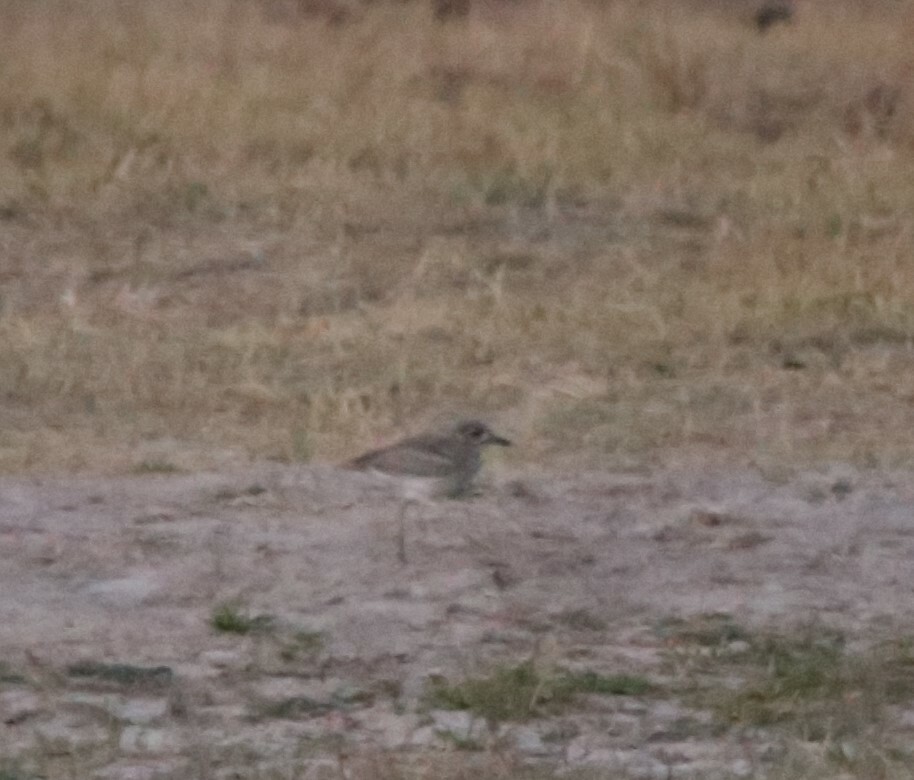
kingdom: Animalia
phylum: Chordata
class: Aves
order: Charadriiformes
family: Burhinidae
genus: Burhinus
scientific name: Burhinus vermiculatus
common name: Water thick-knee
